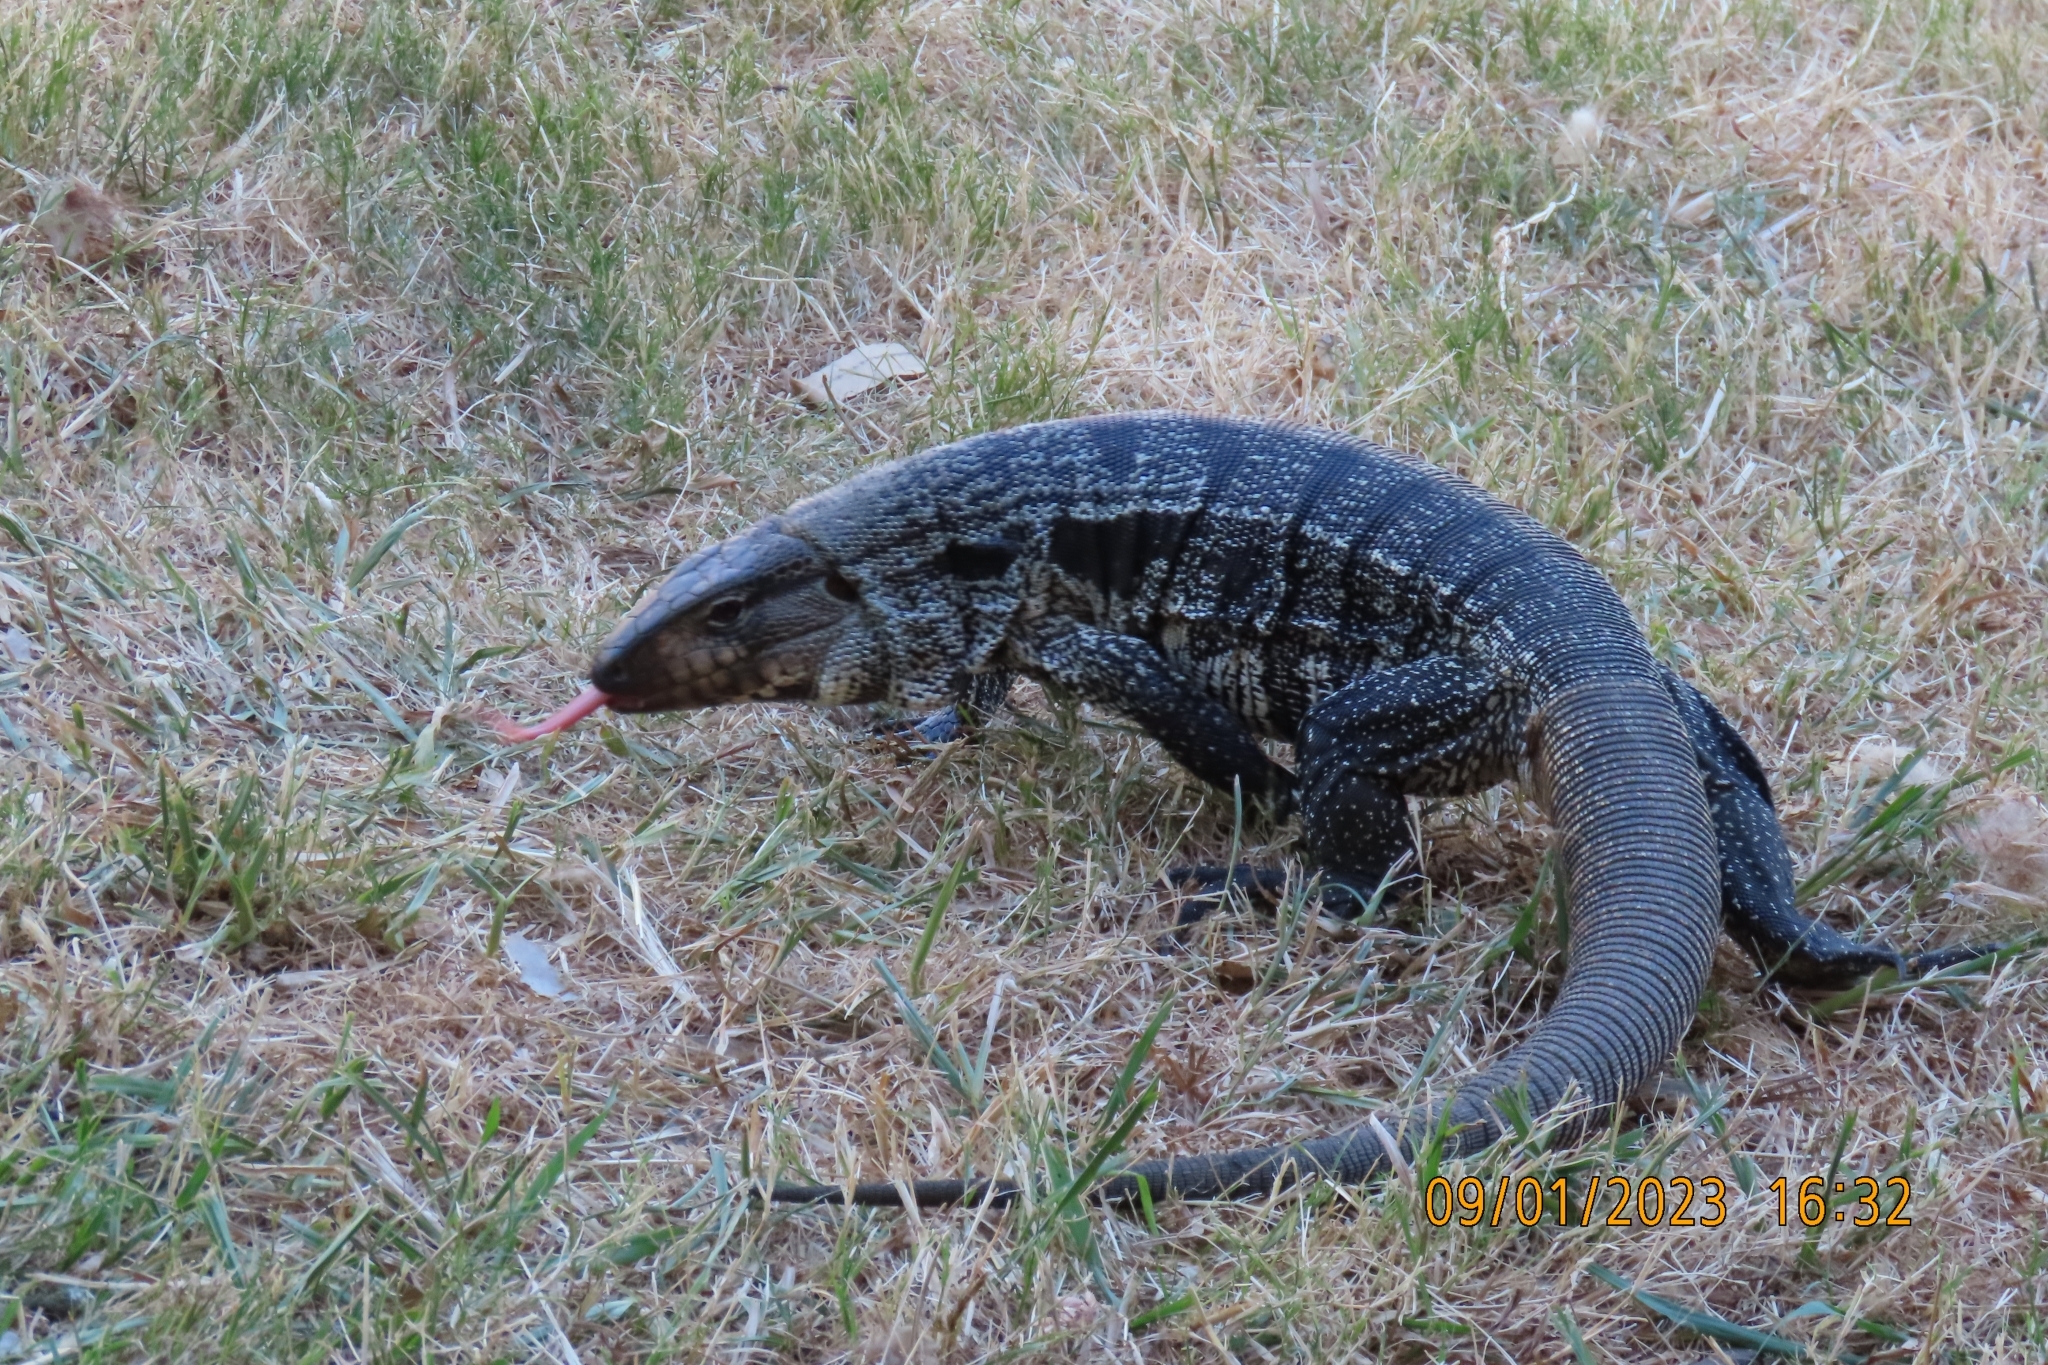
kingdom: Animalia
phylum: Chordata
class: Squamata
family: Teiidae
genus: Salvator
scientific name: Salvator merianae
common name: Argentine black and white tegu
